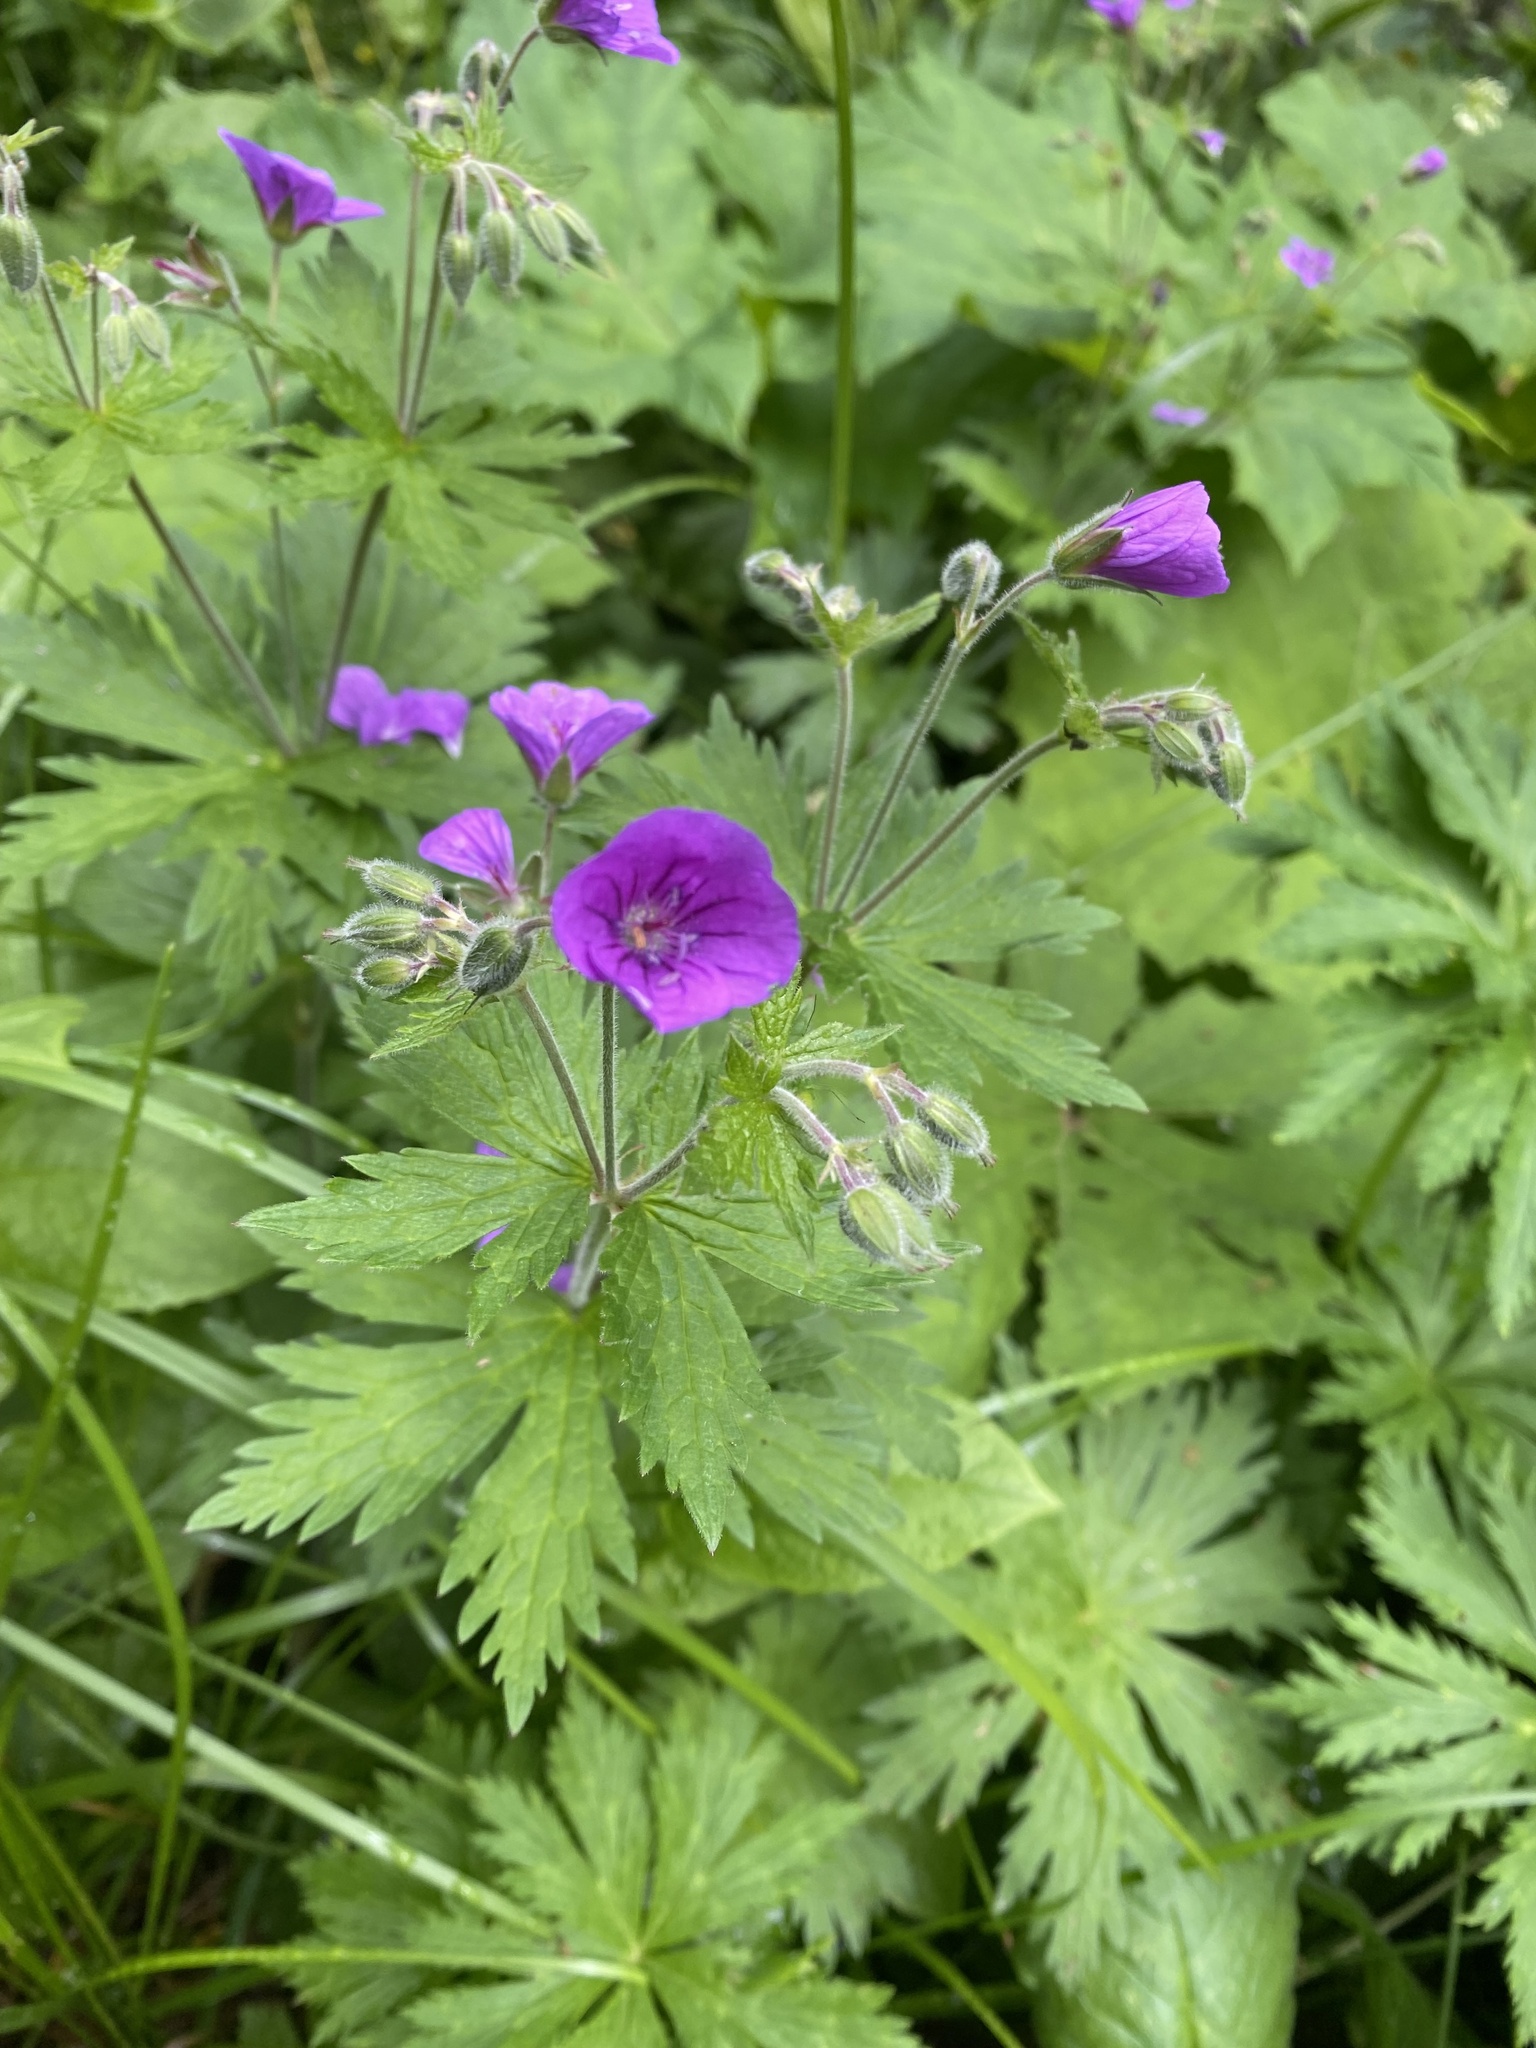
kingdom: Plantae
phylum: Tracheophyta
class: Magnoliopsida
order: Geraniales
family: Geraniaceae
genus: Geranium
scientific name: Geranium sylvaticum
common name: Wood crane's-bill
